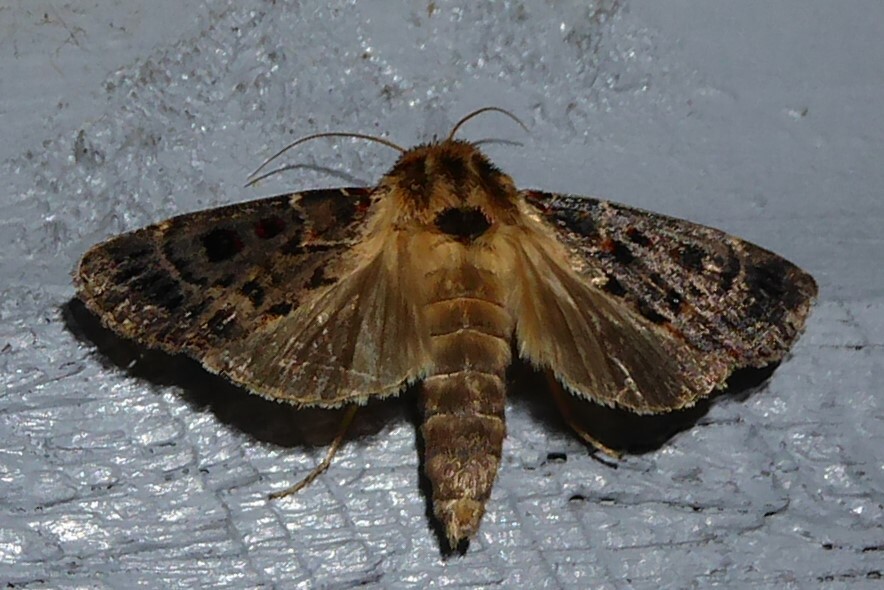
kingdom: Animalia
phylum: Arthropoda
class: Insecta
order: Lepidoptera
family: Noctuidae
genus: Proteuxoa
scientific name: Proteuxoa sanguinipuncta
